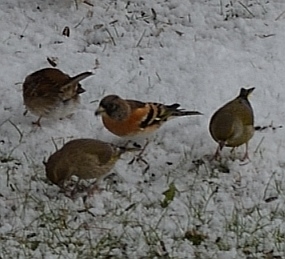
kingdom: Animalia
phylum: Chordata
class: Aves
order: Passeriformes
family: Fringillidae
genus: Fringilla
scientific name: Fringilla montifringilla
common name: Brambling
